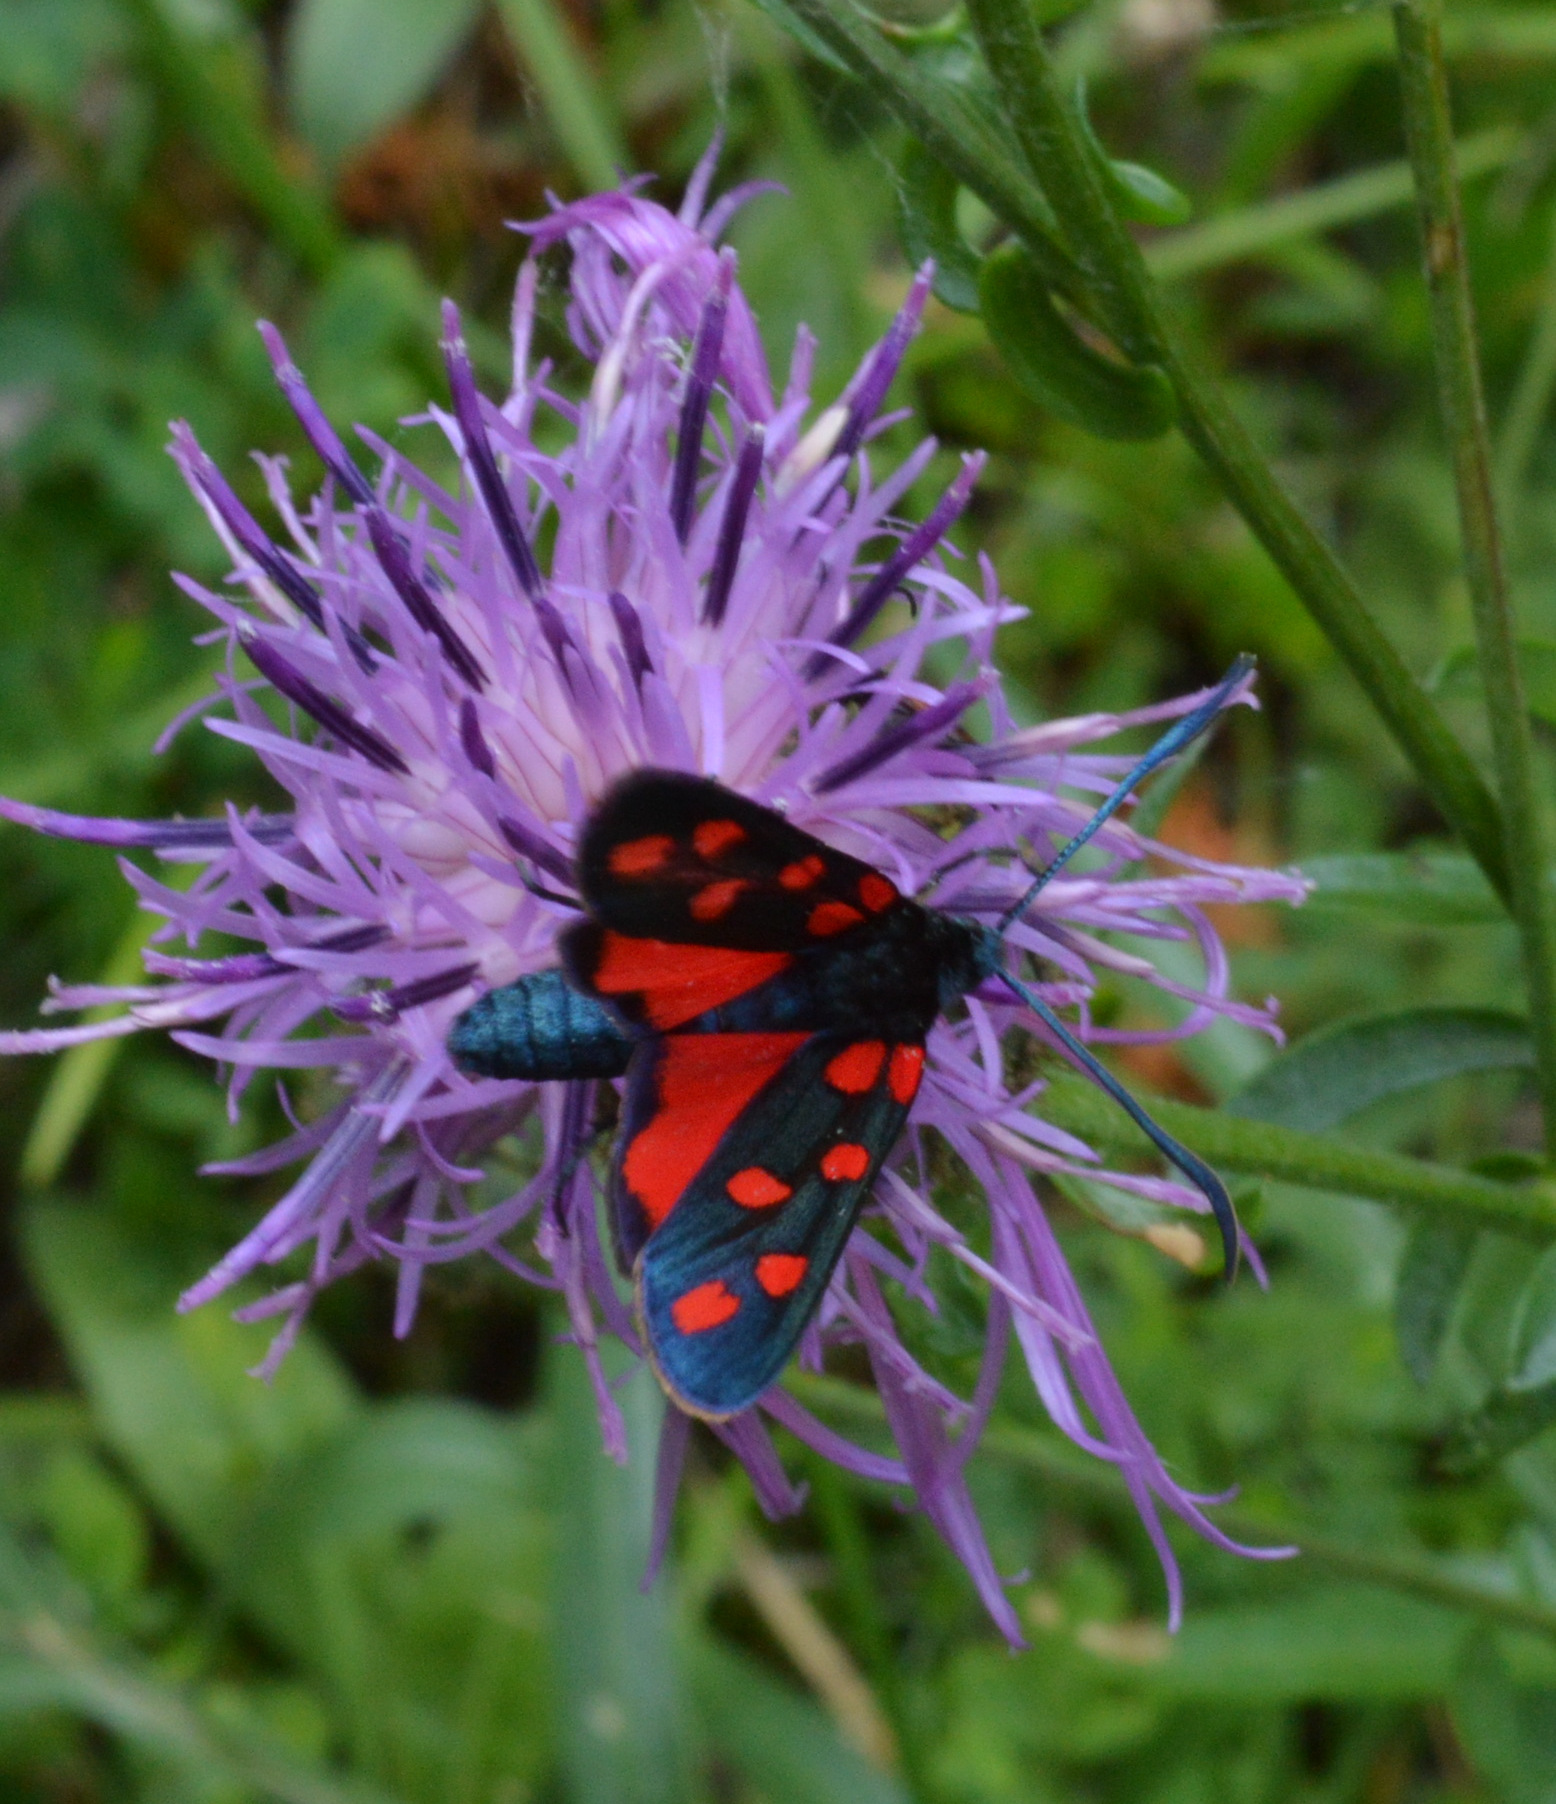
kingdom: Animalia
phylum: Arthropoda
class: Insecta
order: Lepidoptera
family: Zygaenidae
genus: Zygaena
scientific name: Zygaena transalpina
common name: Southern six spot burnet
